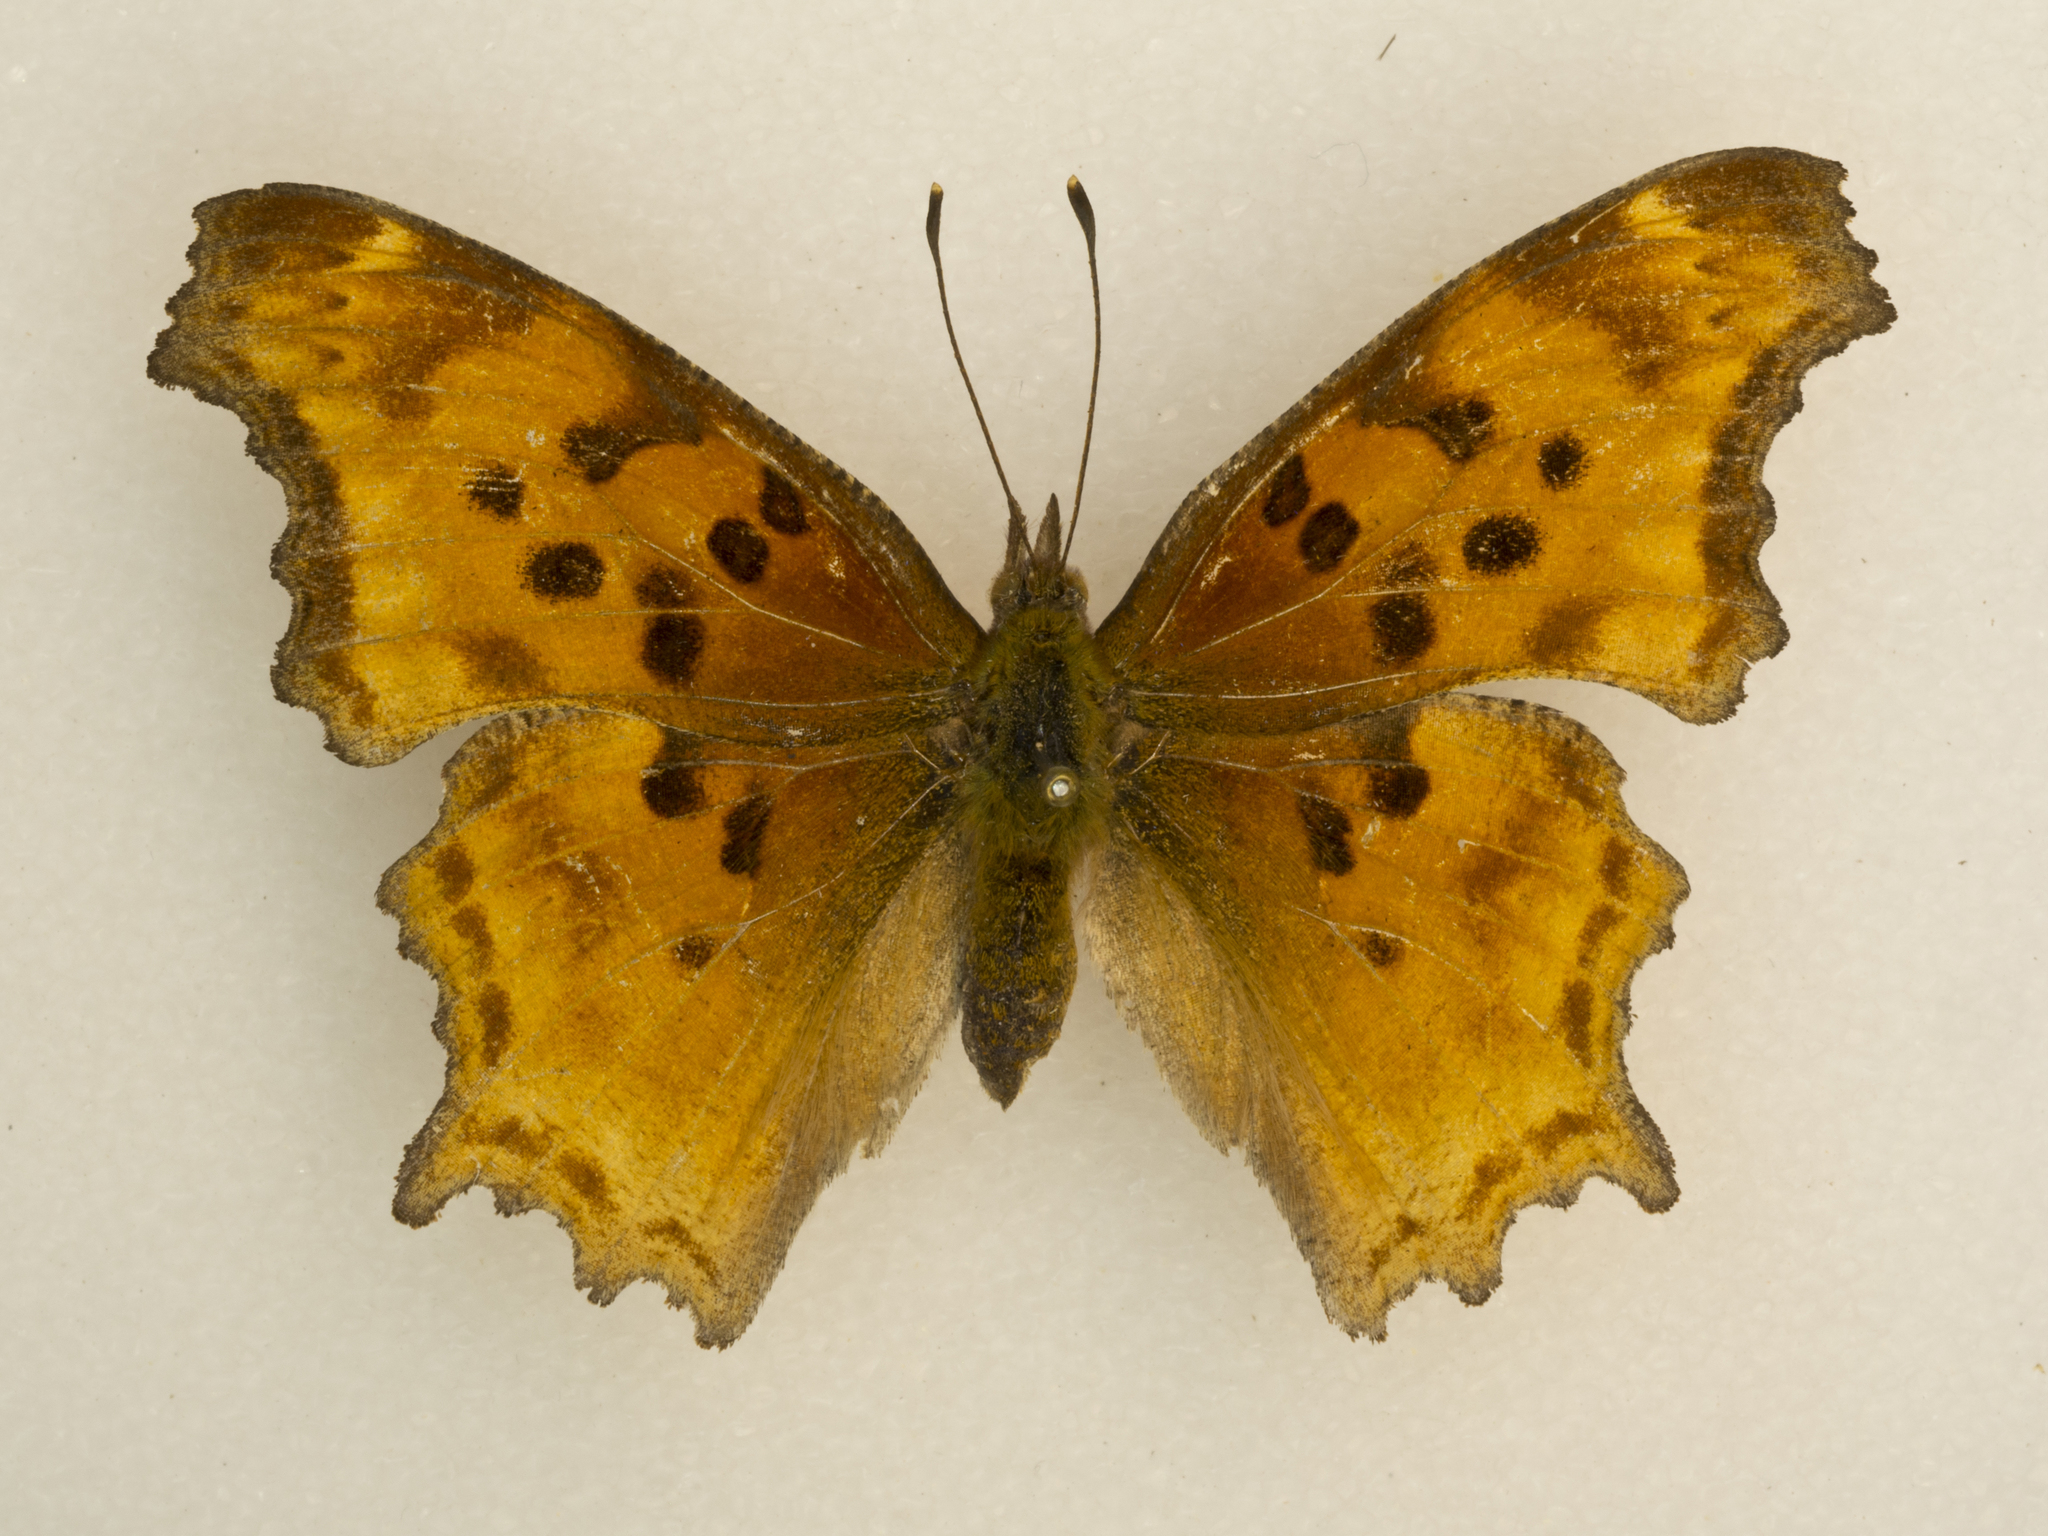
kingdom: Animalia
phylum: Arthropoda
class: Insecta
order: Lepidoptera
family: Nymphalidae
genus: Polygonia
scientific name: Polygonia satyrus
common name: Satyr angle wing
